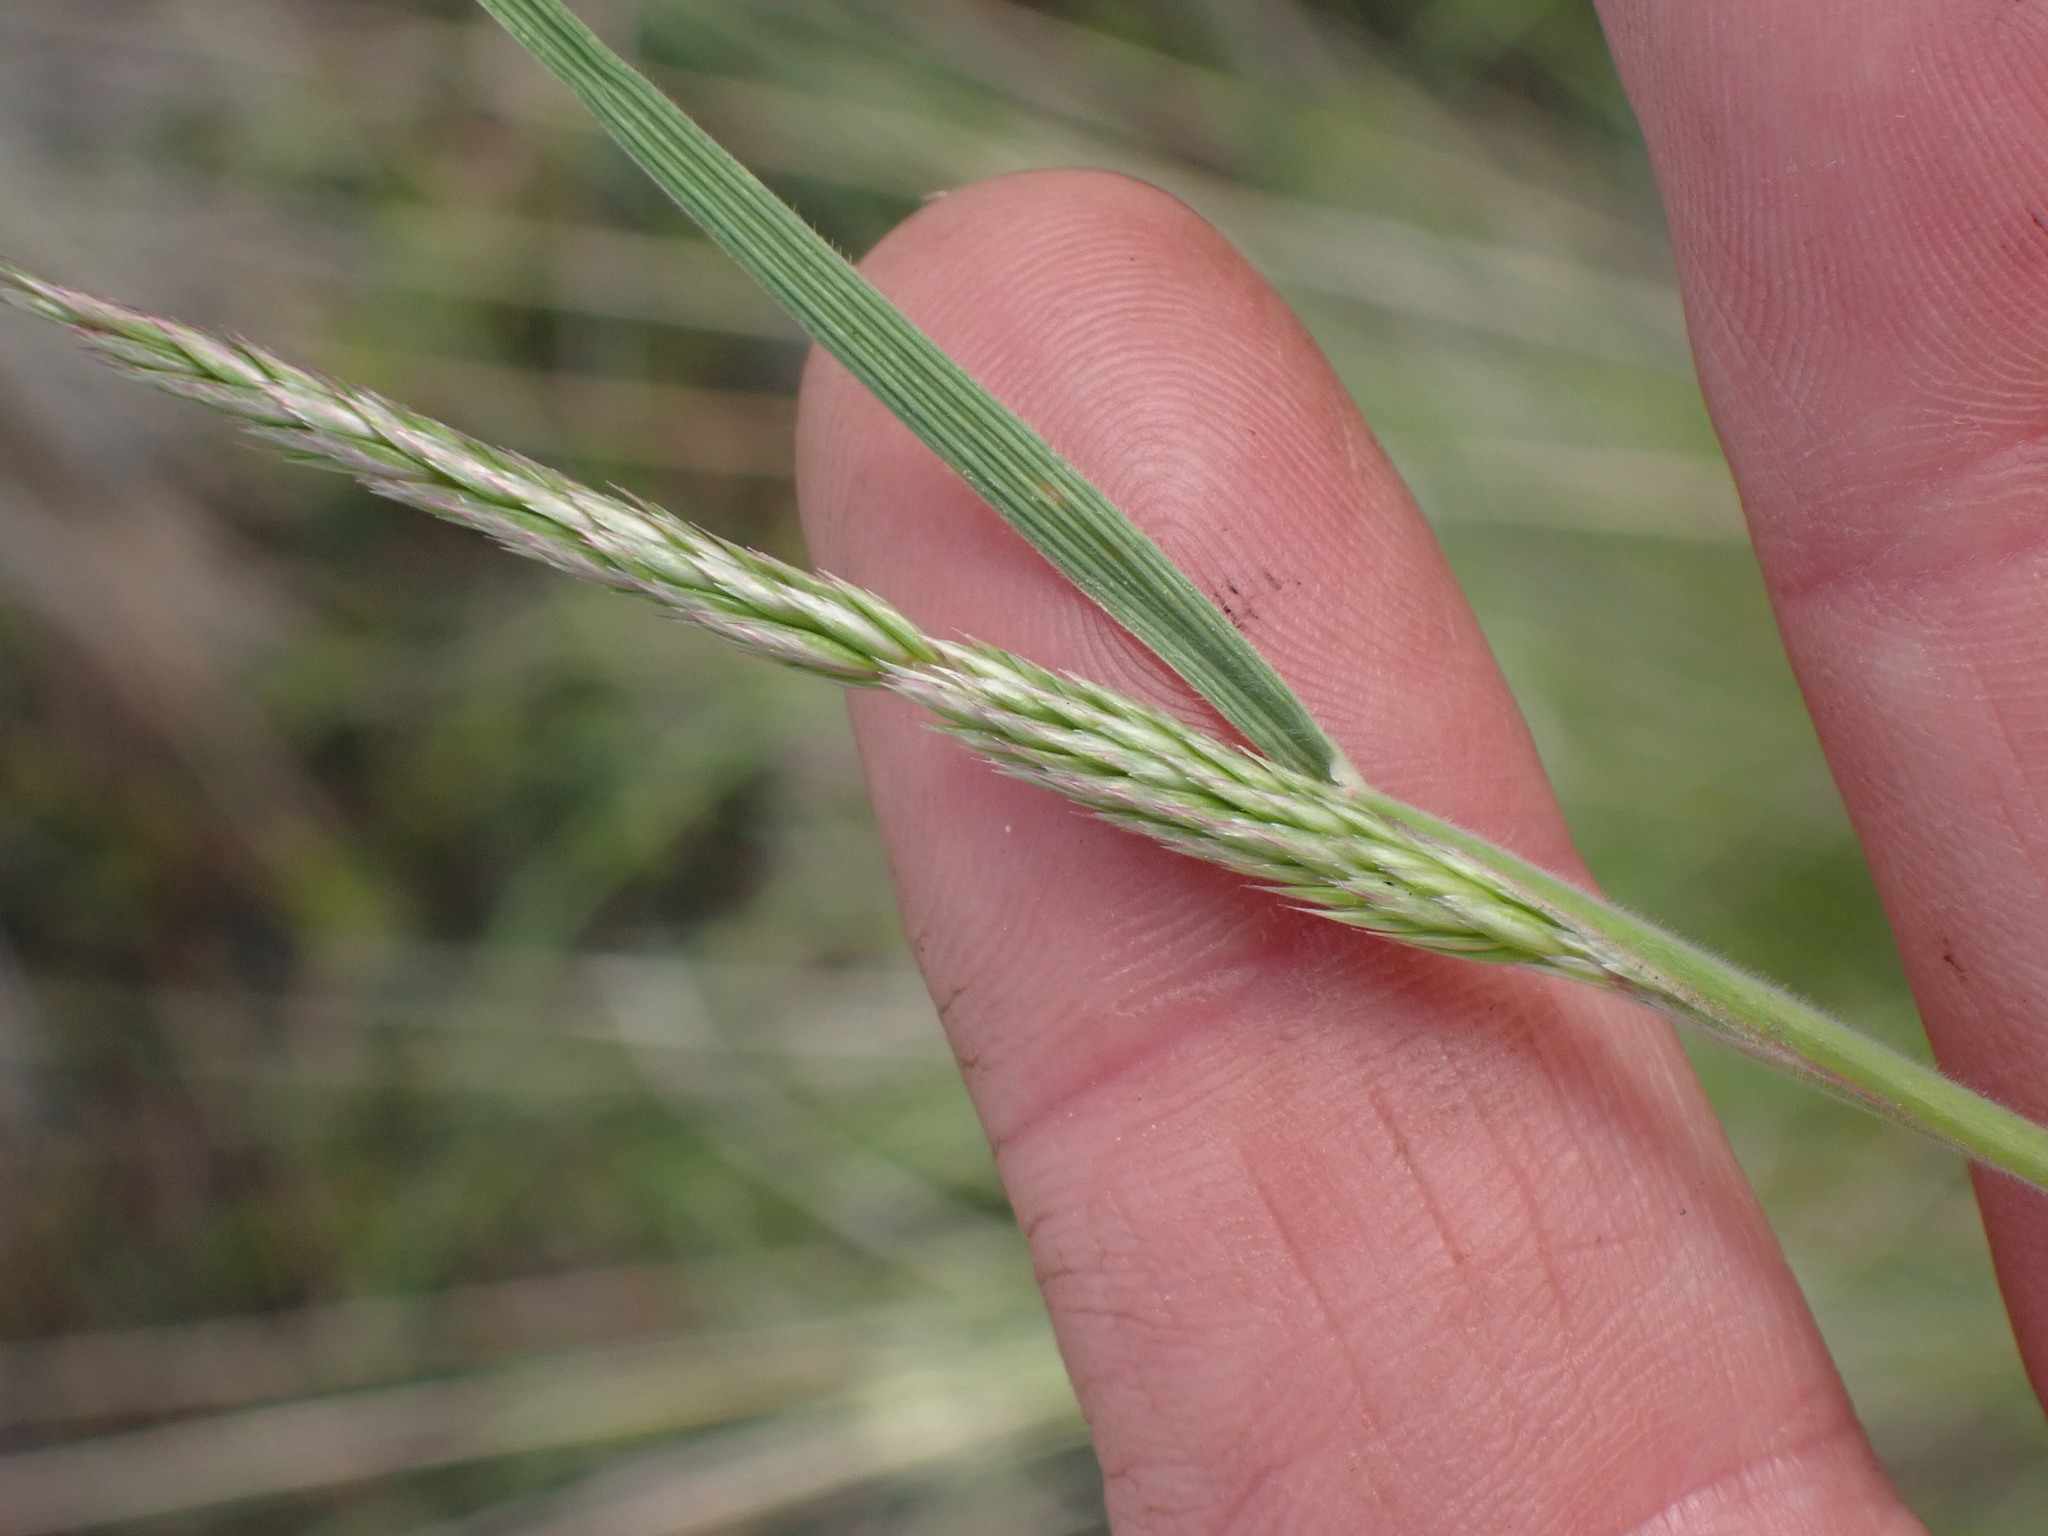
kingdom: Plantae
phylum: Tracheophyta
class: Liliopsida
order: Poales
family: Poaceae
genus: Koeleria
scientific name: Koeleria macrantha
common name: Crested hair-grass
